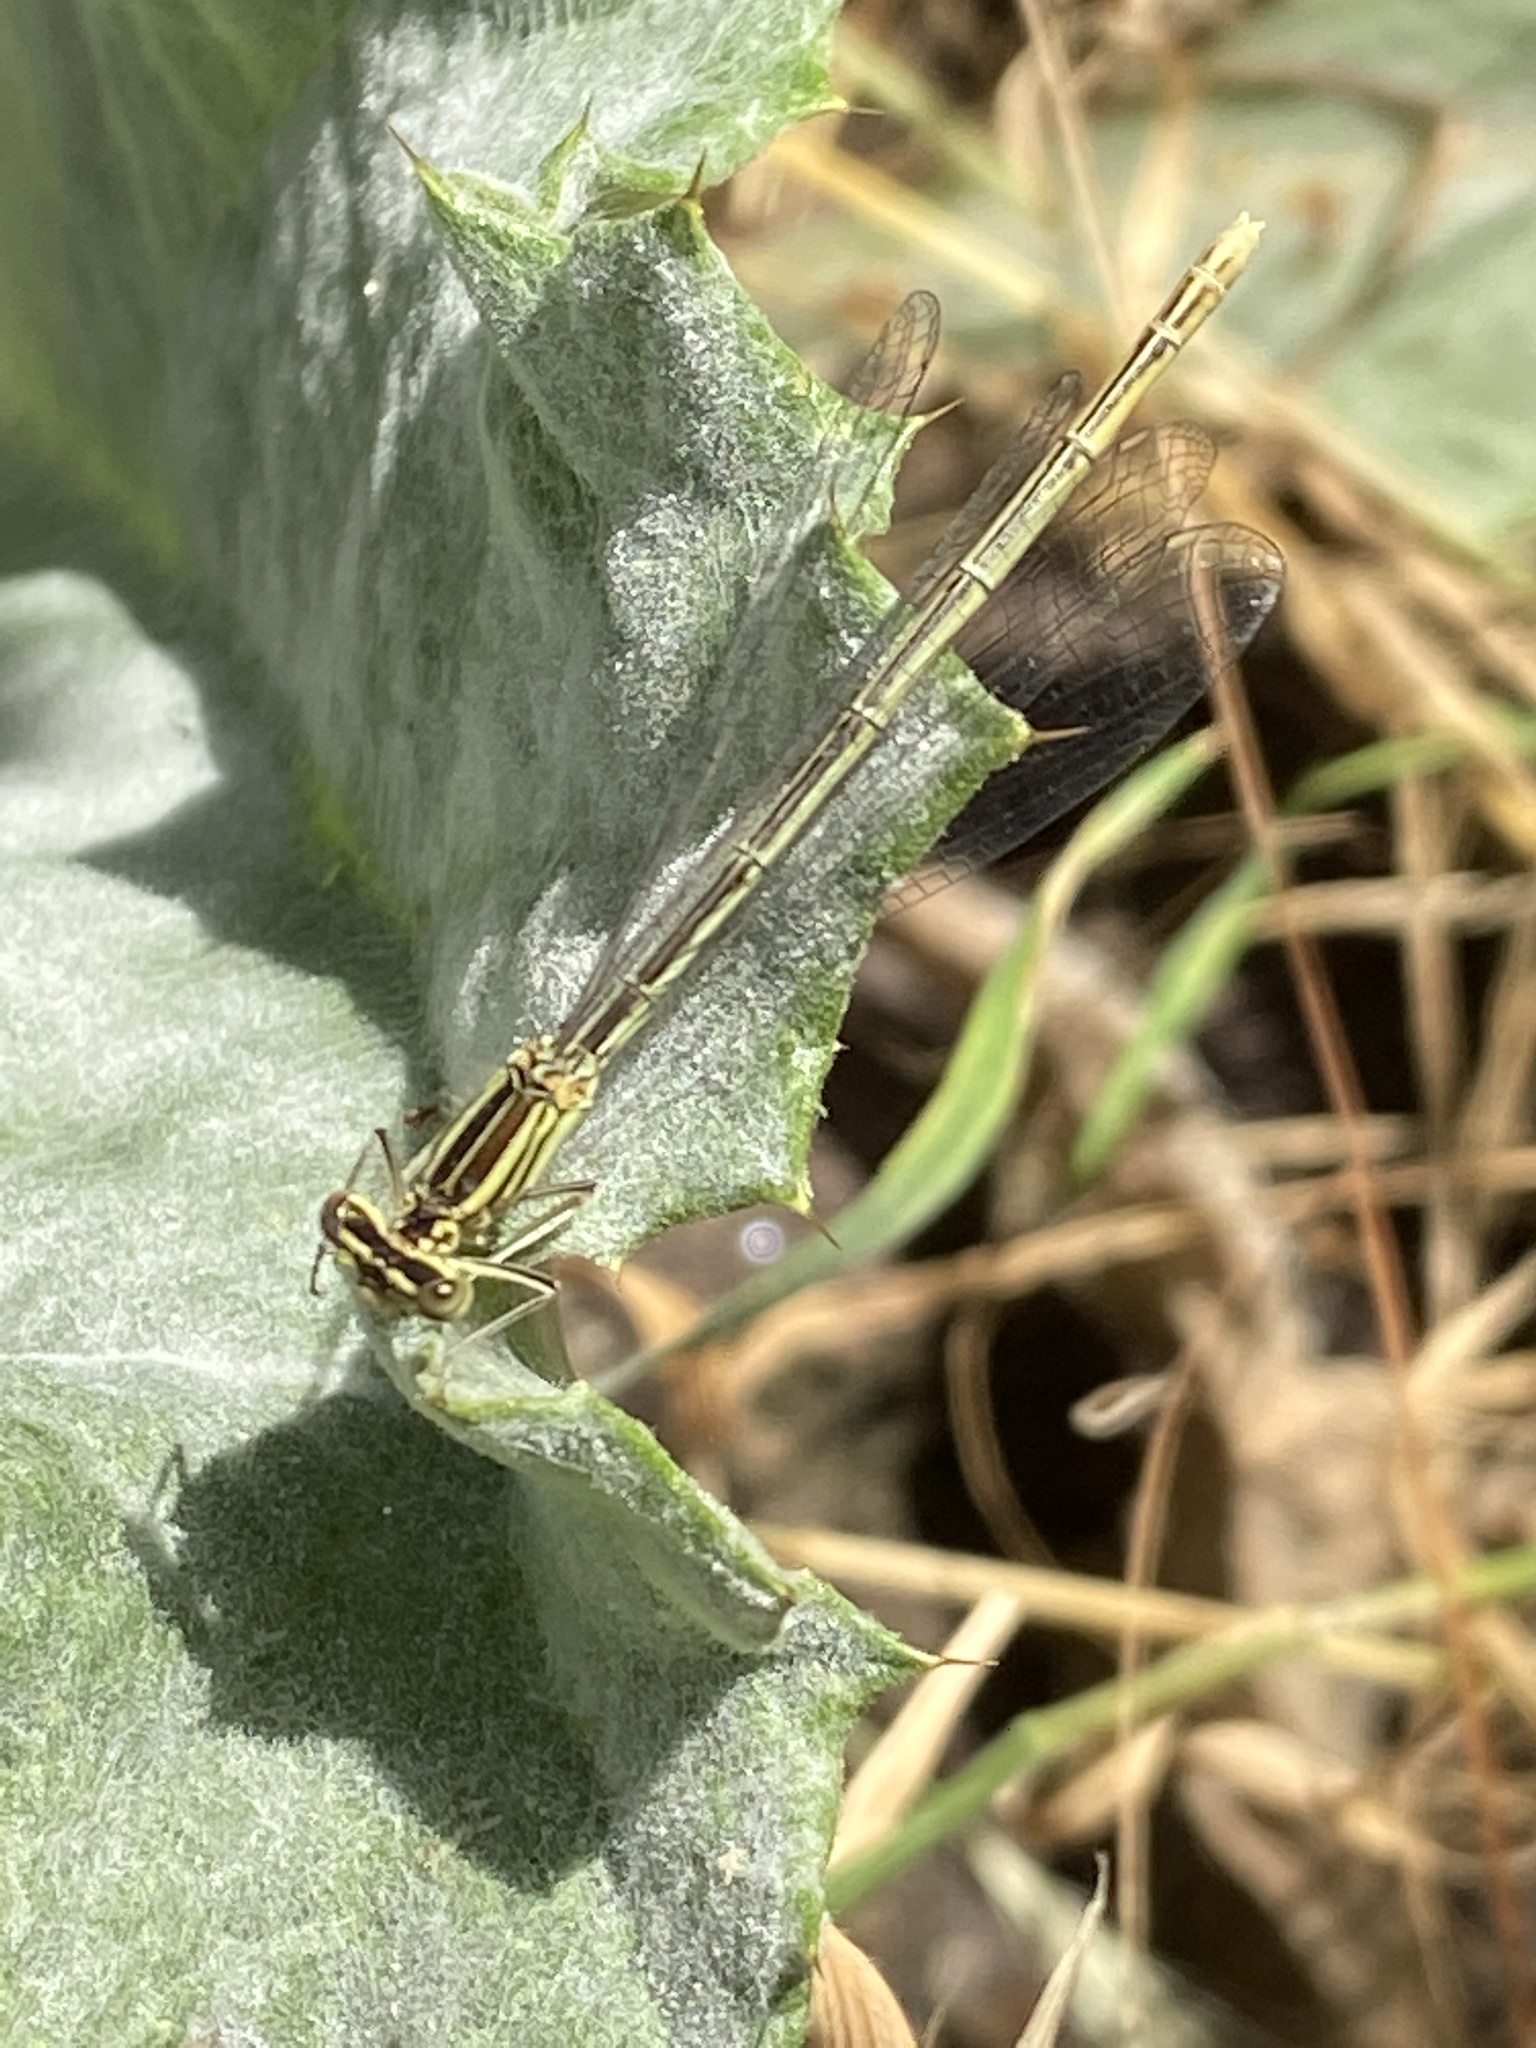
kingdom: Animalia
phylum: Arthropoda
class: Insecta
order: Odonata
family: Platycnemididae
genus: Platycnemis
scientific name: Platycnemis pennipes
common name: White-legged damselfly
